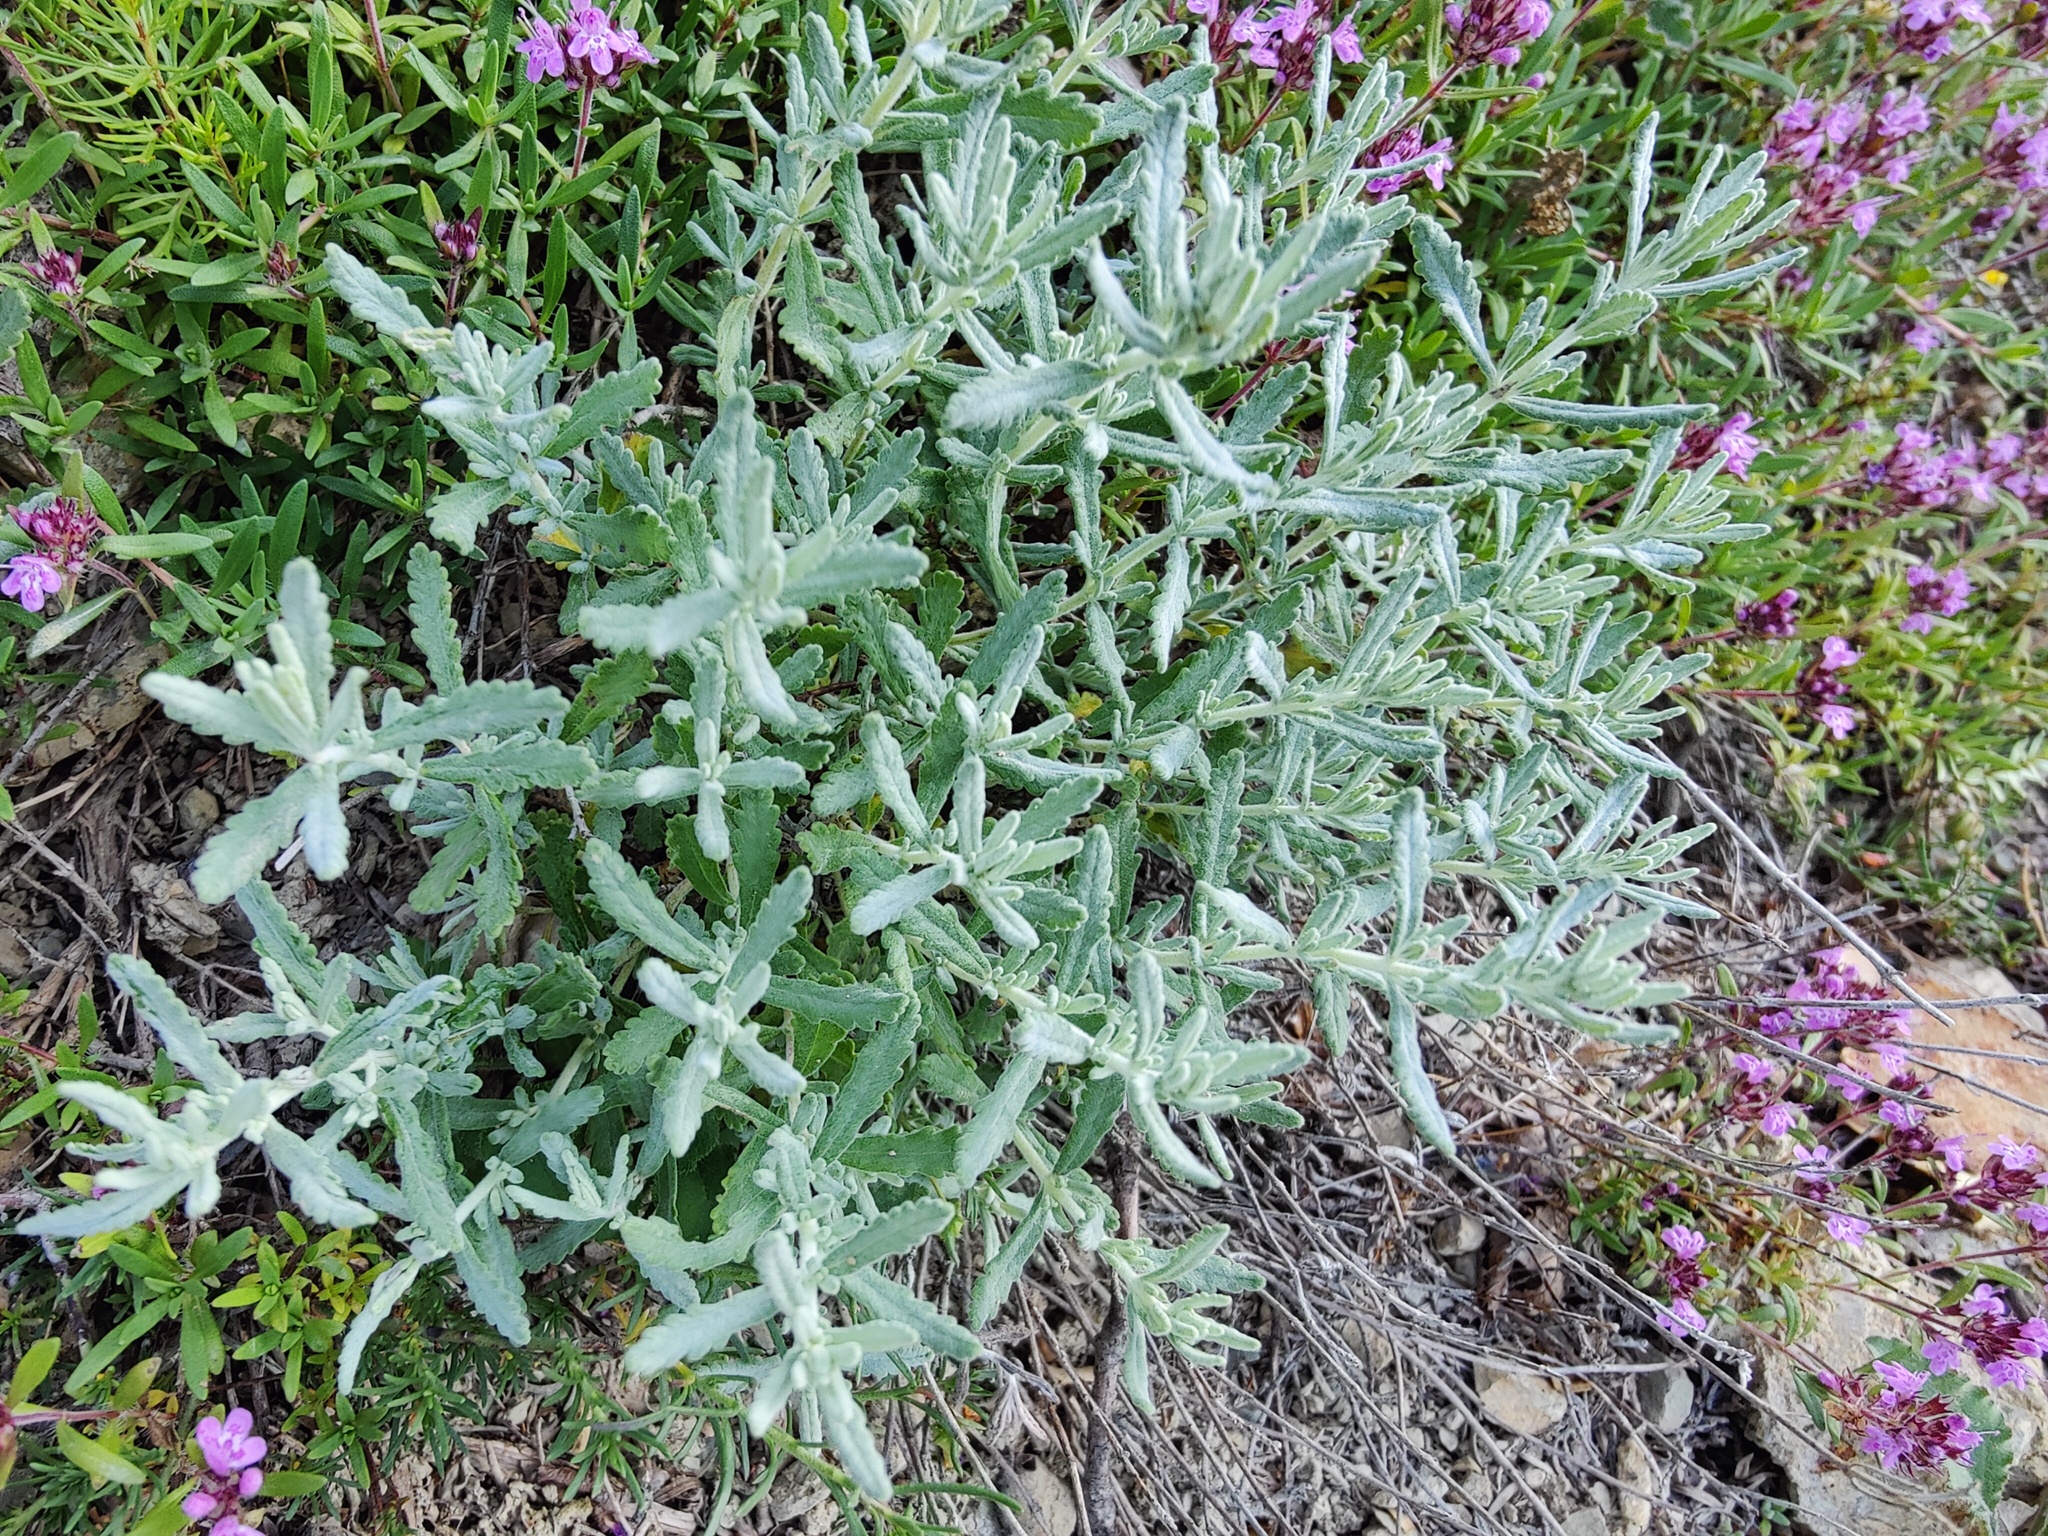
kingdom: Plantae
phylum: Tracheophyta
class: Magnoliopsida
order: Lamiales
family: Lamiaceae
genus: Teucrium
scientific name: Teucrium polium
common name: Poley
